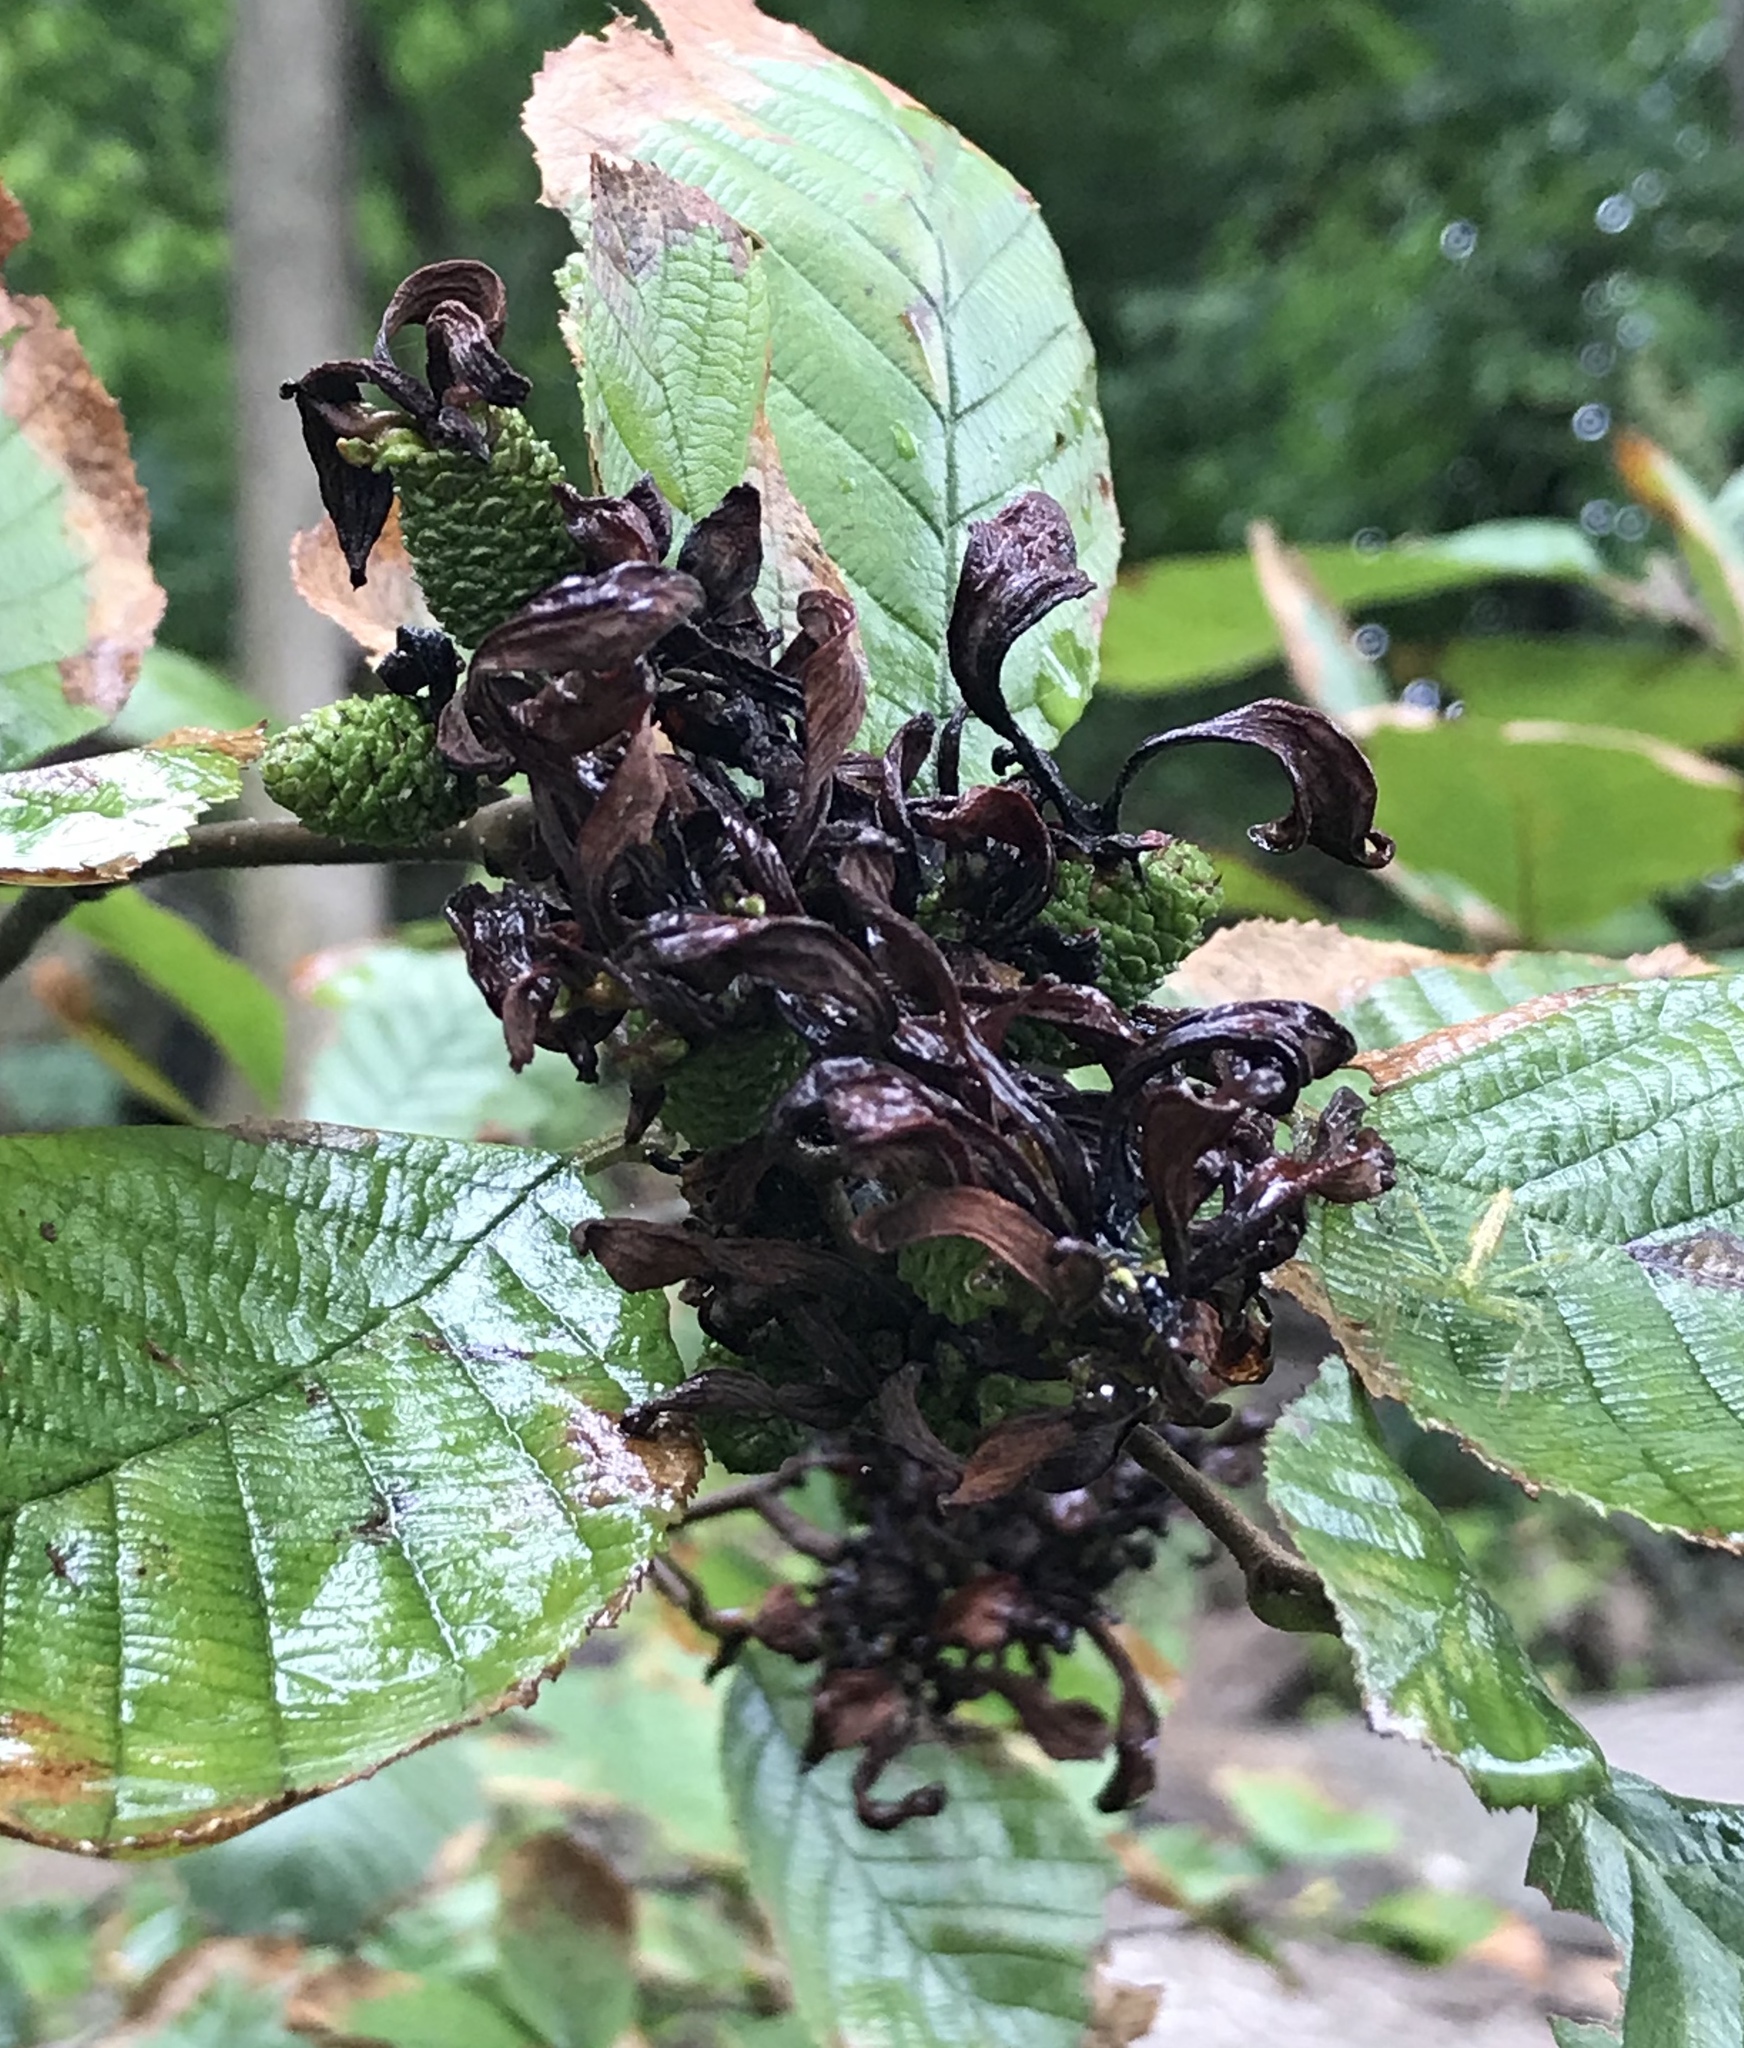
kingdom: Fungi
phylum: Ascomycota
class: Taphrinomycetes
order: Taphrinales
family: Taphrinaceae
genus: Taphrina
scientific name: Taphrina robinsoniana
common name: Eastern american alder tongue gall fungus
